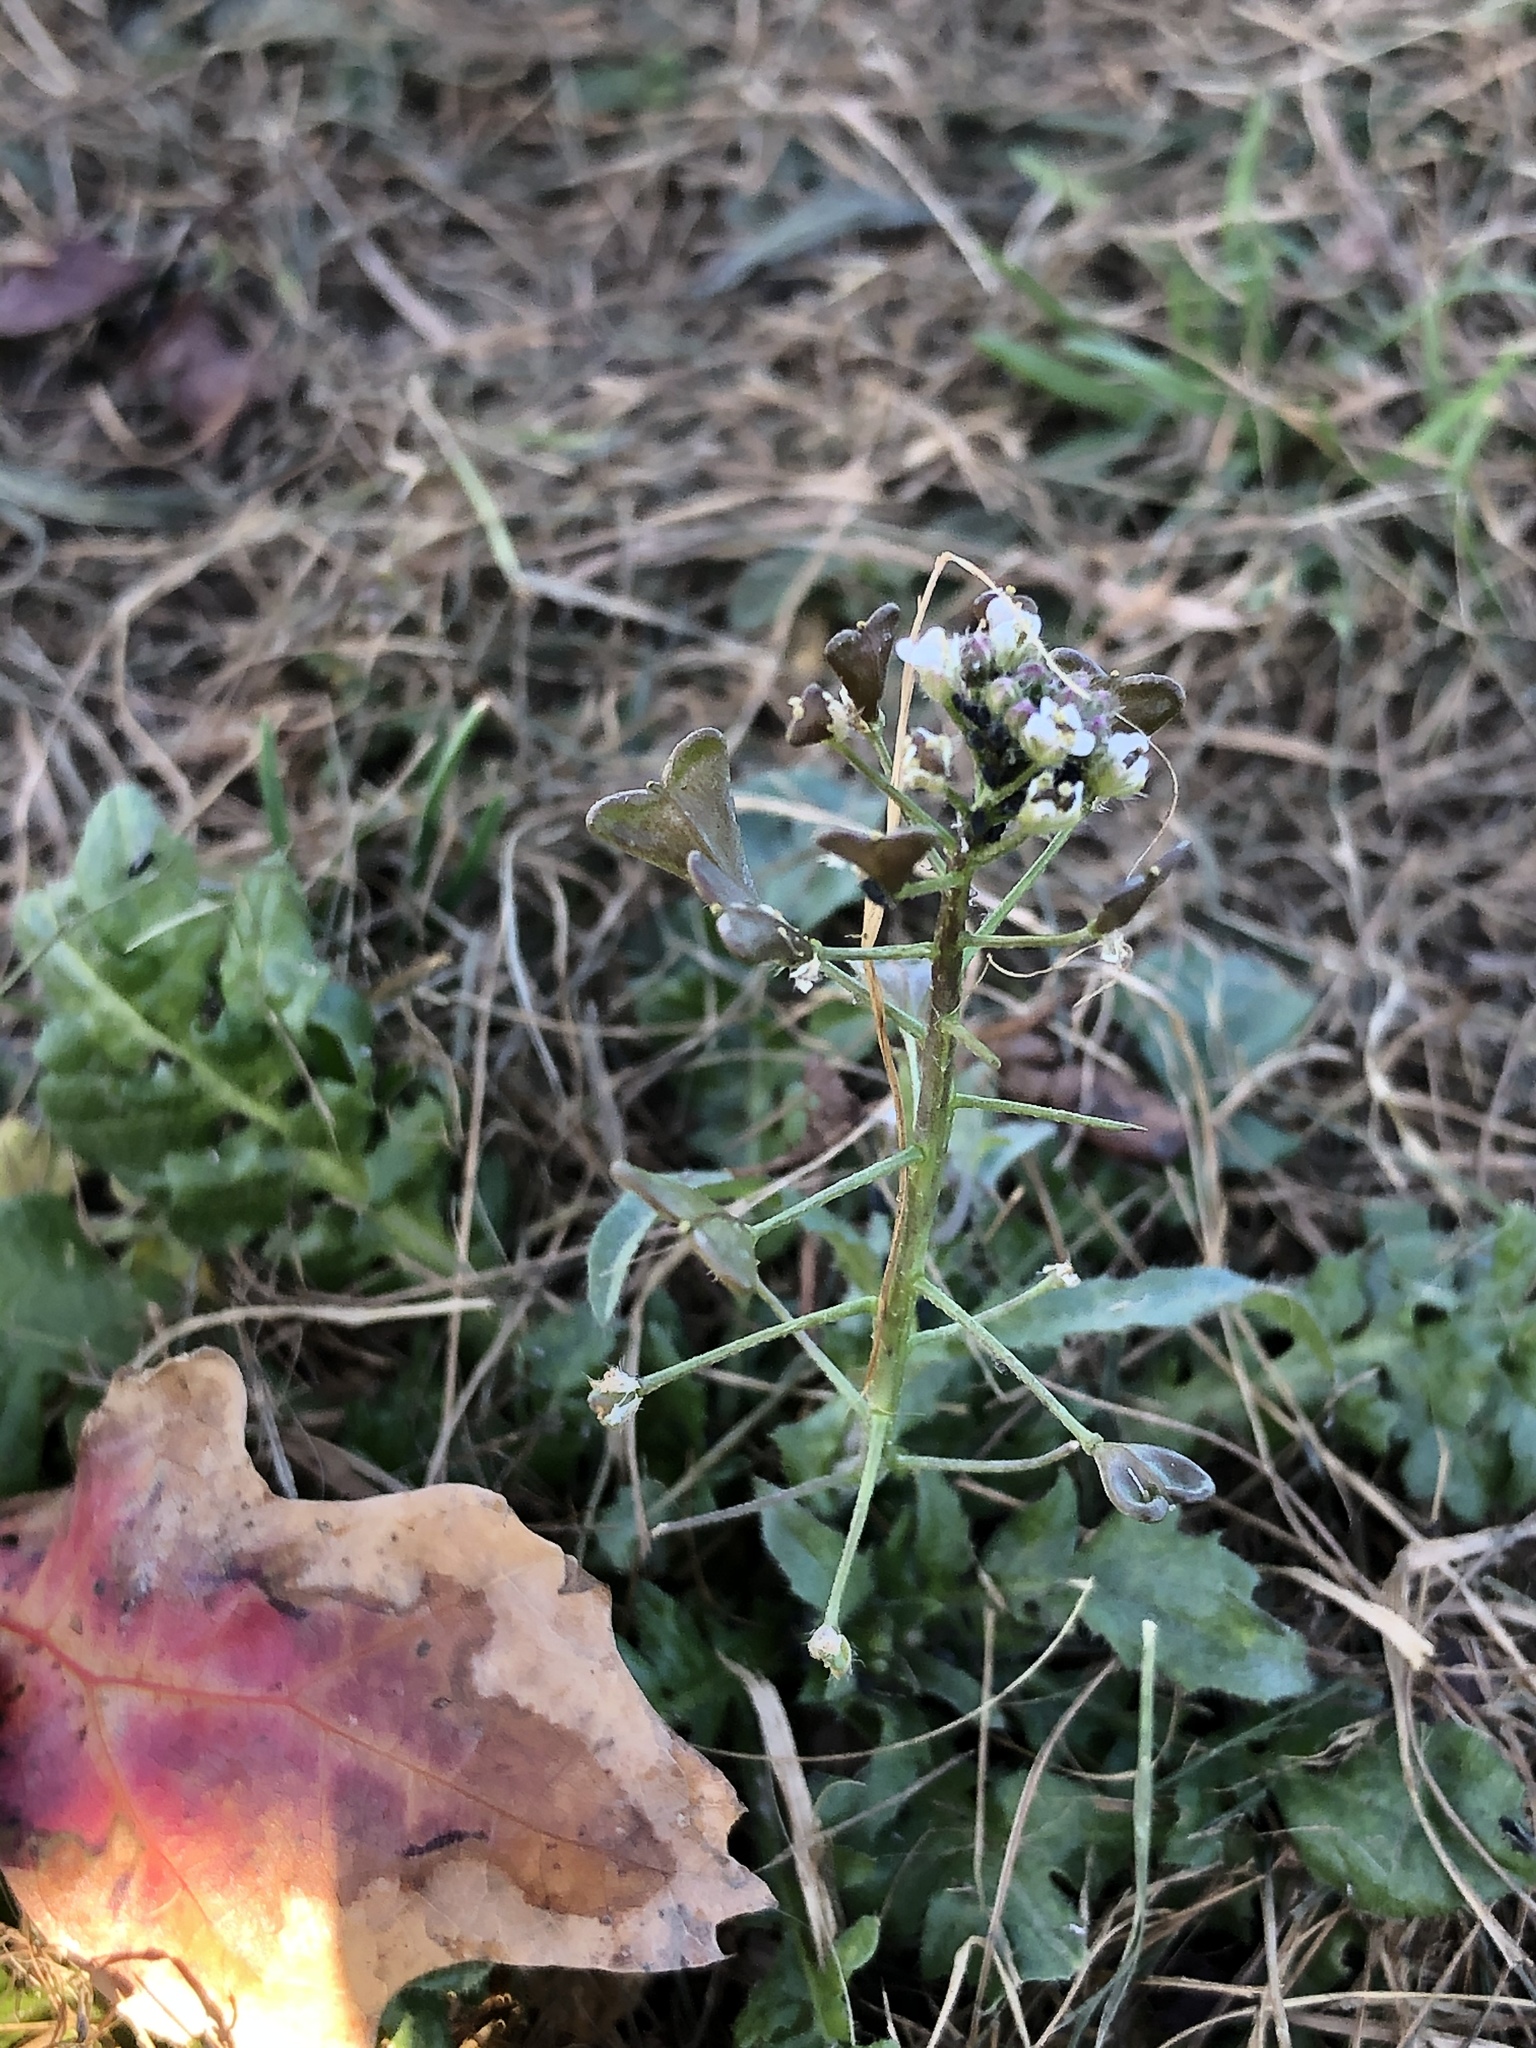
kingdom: Plantae
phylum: Tracheophyta
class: Magnoliopsida
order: Brassicales
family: Brassicaceae
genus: Capsella
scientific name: Capsella bursa-pastoris
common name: Shepherd's purse
